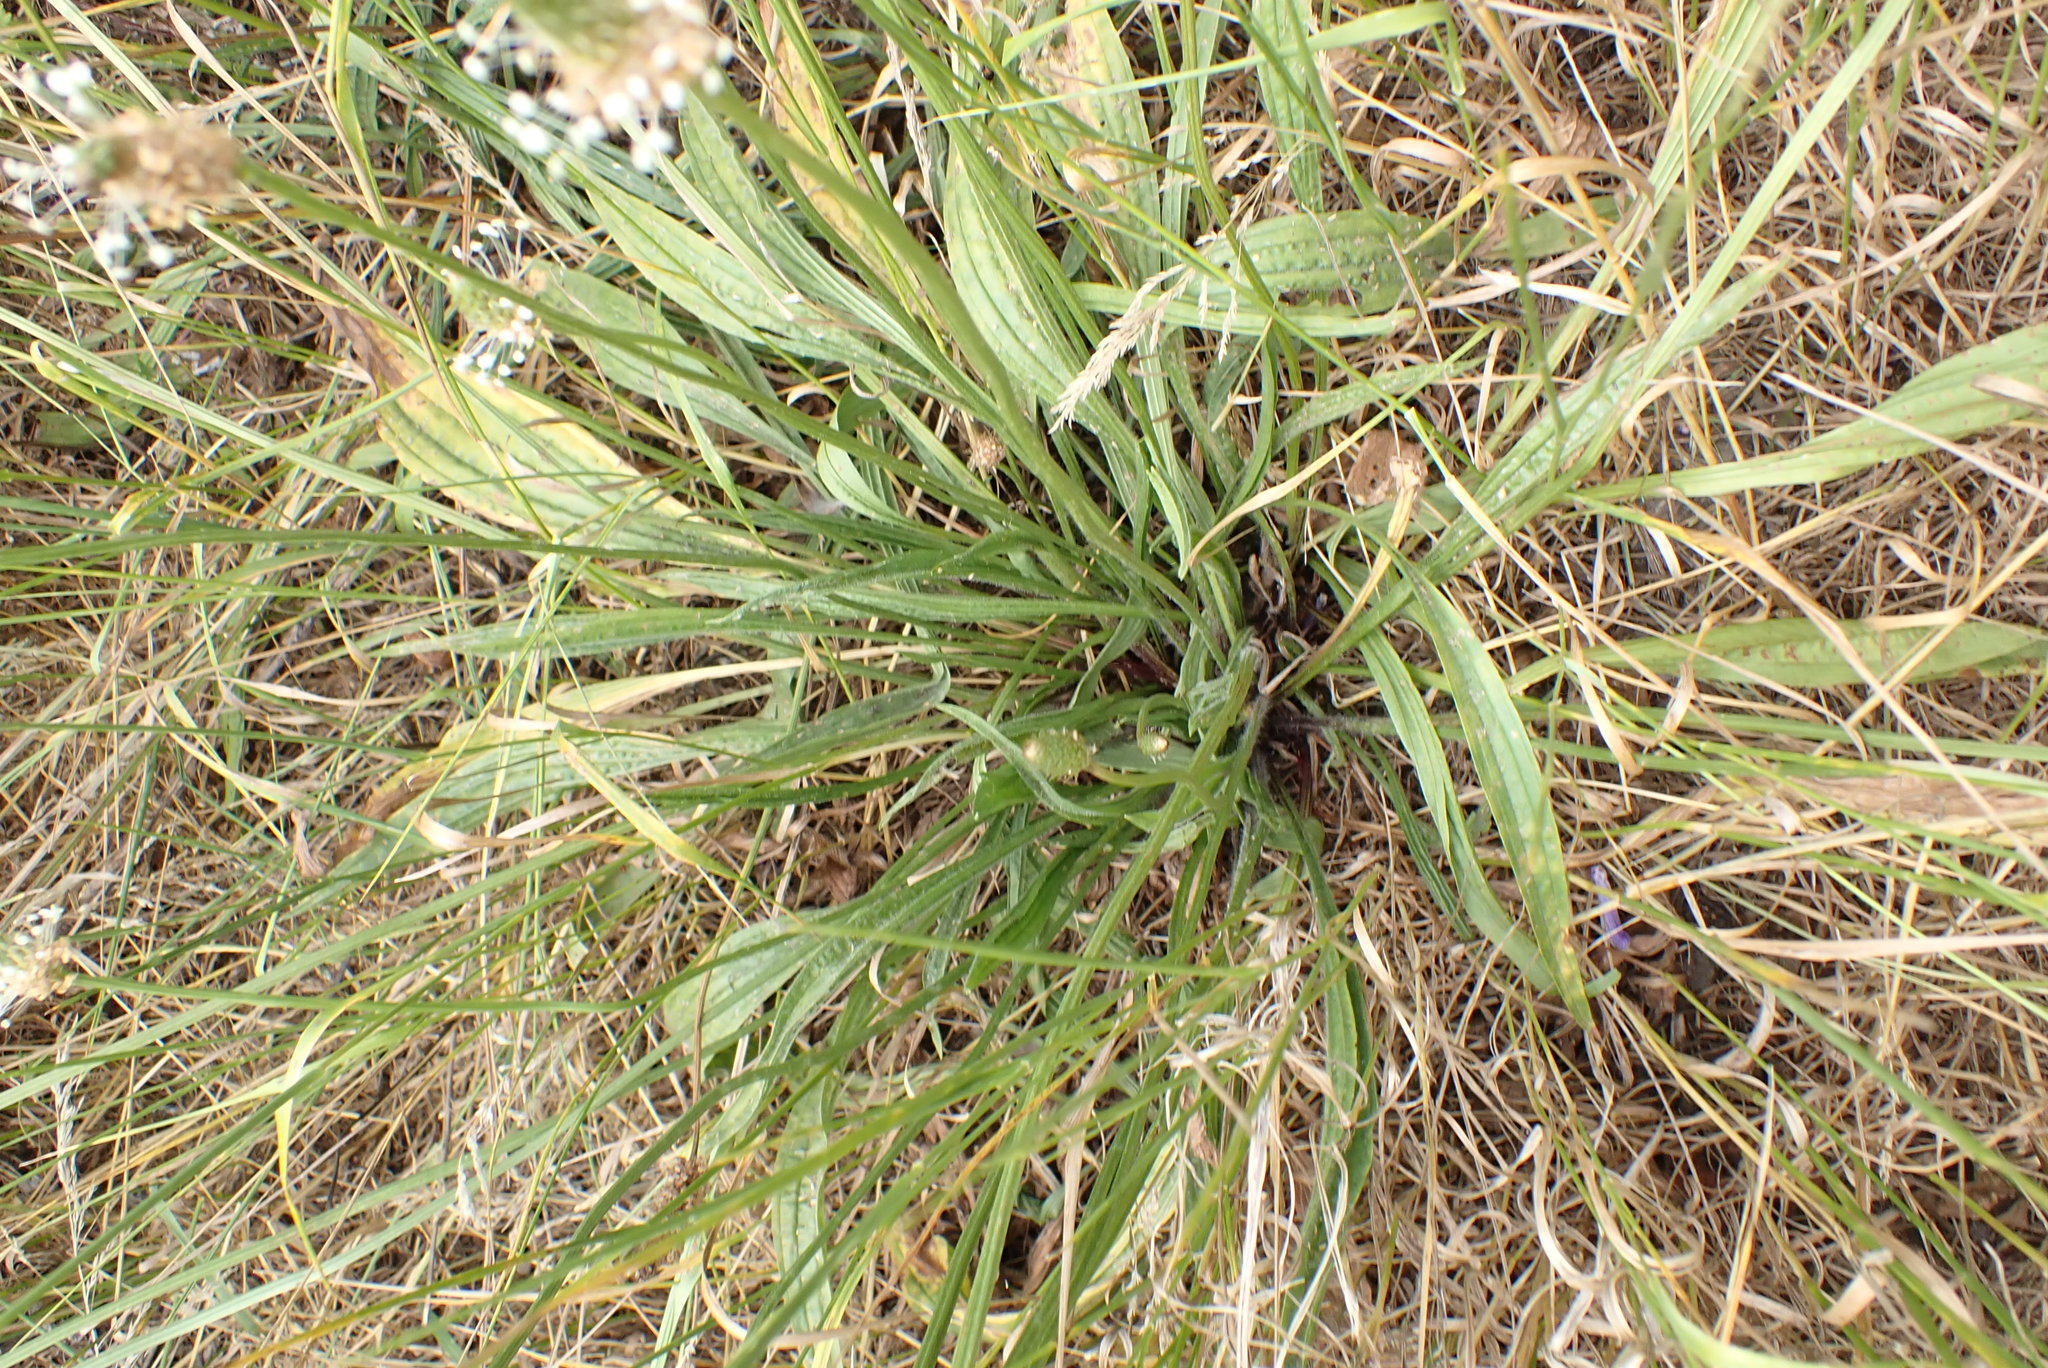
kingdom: Plantae
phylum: Tracheophyta
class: Magnoliopsida
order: Lamiales
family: Plantaginaceae
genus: Plantago
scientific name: Plantago lanceolata
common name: Ribwort plantain
